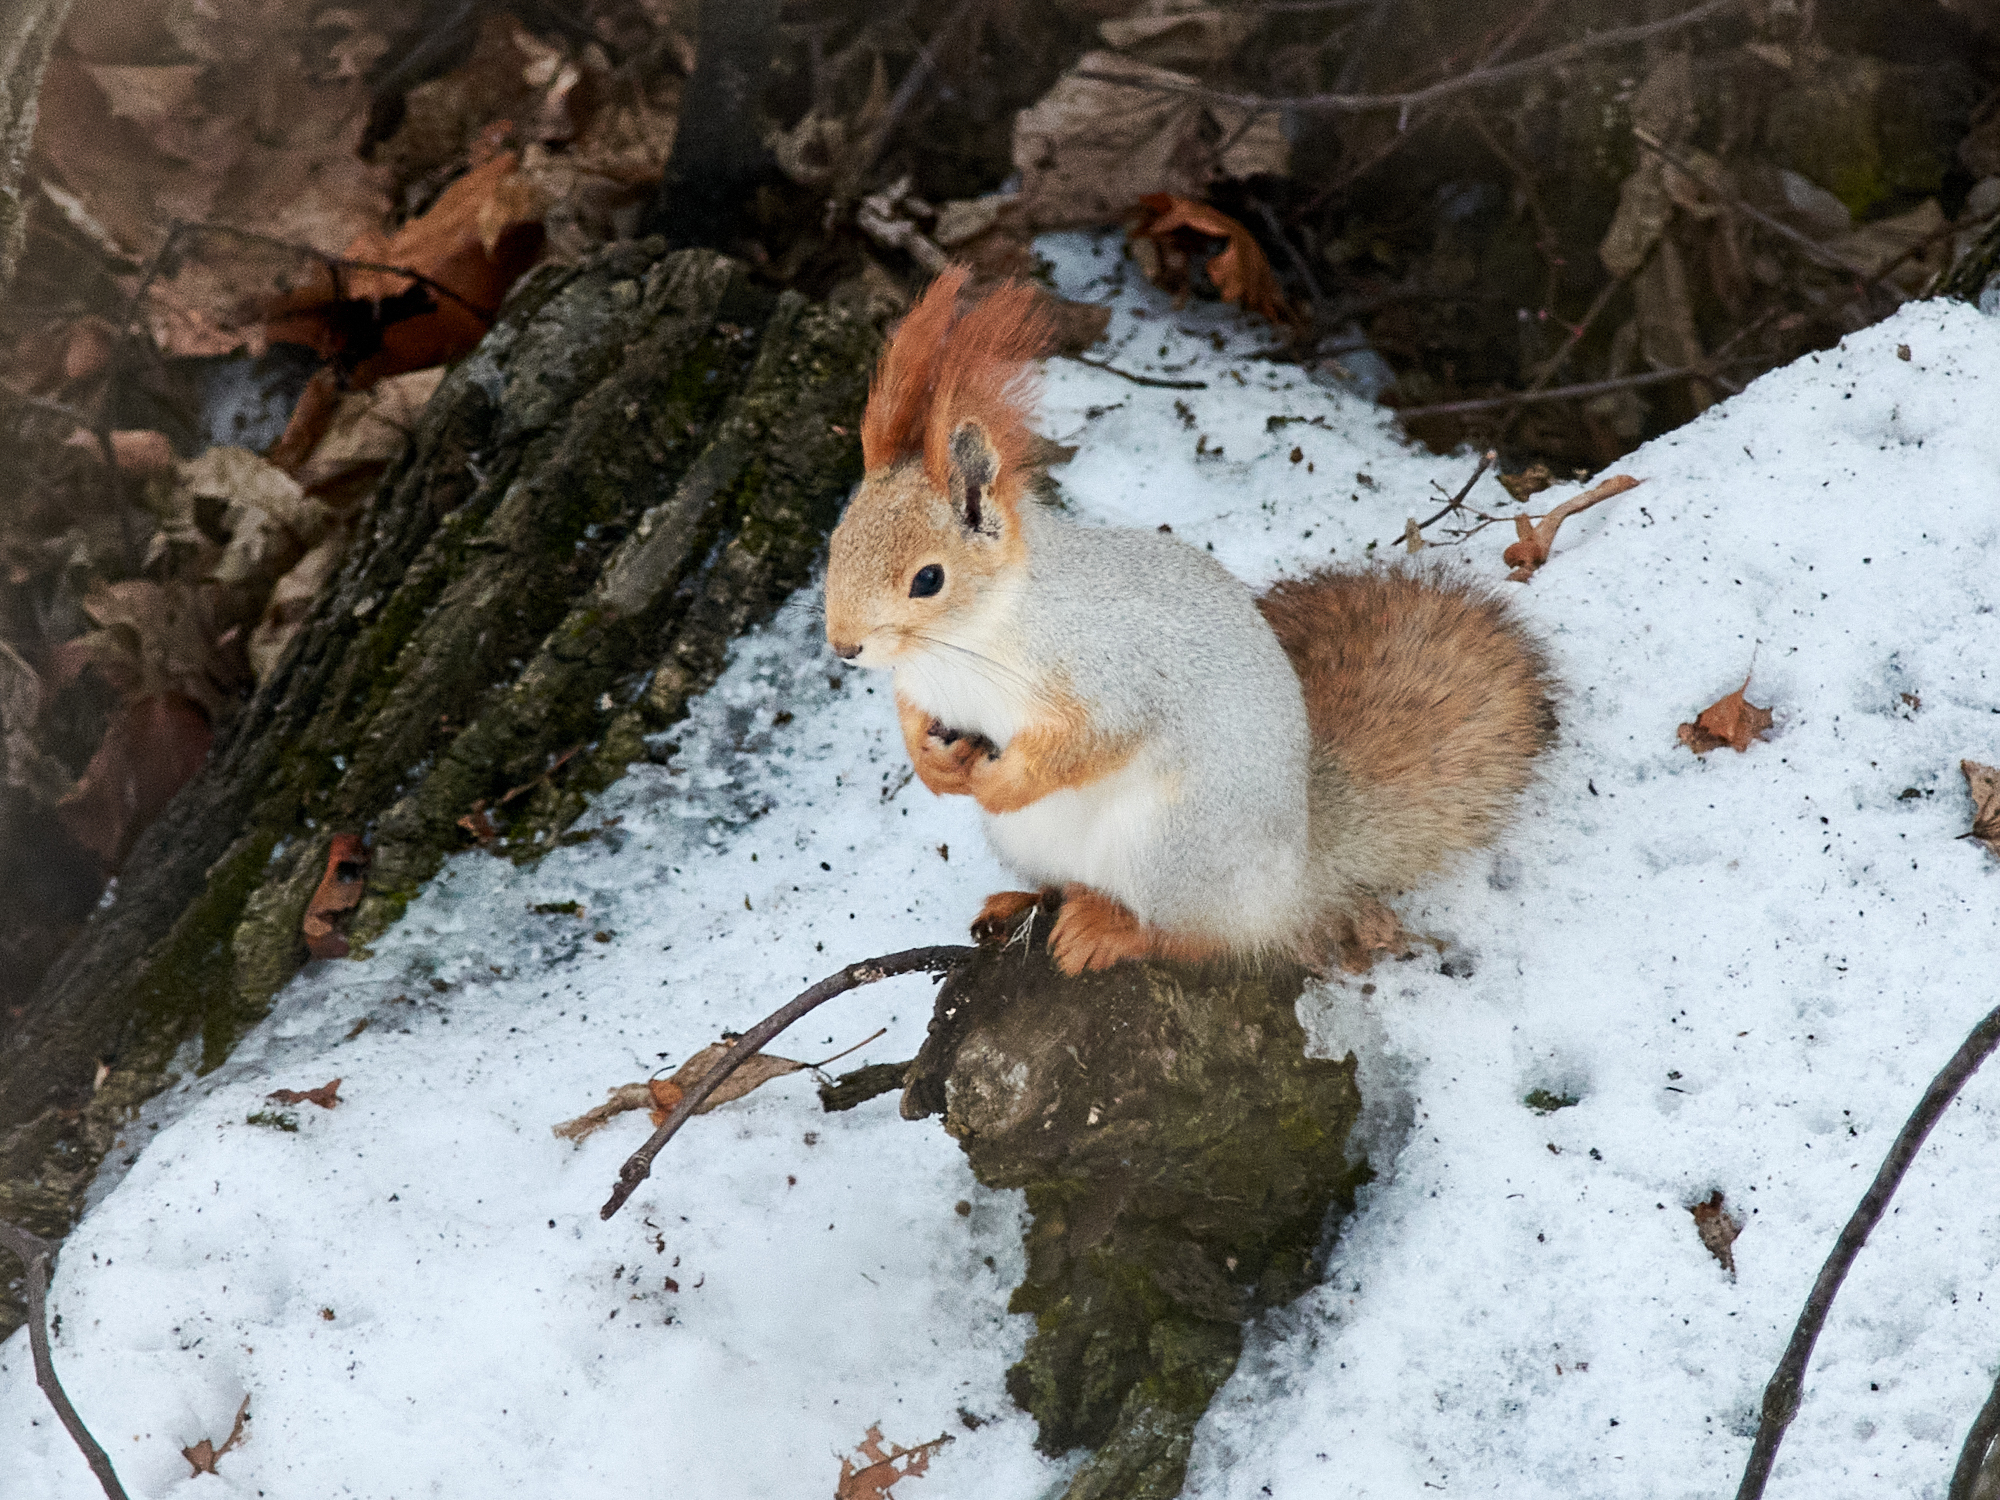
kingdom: Animalia
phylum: Chordata
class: Mammalia
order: Rodentia
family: Sciuridae
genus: Sciurus
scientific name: Sciurus vulgaris
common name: Eurasian red squirrel
